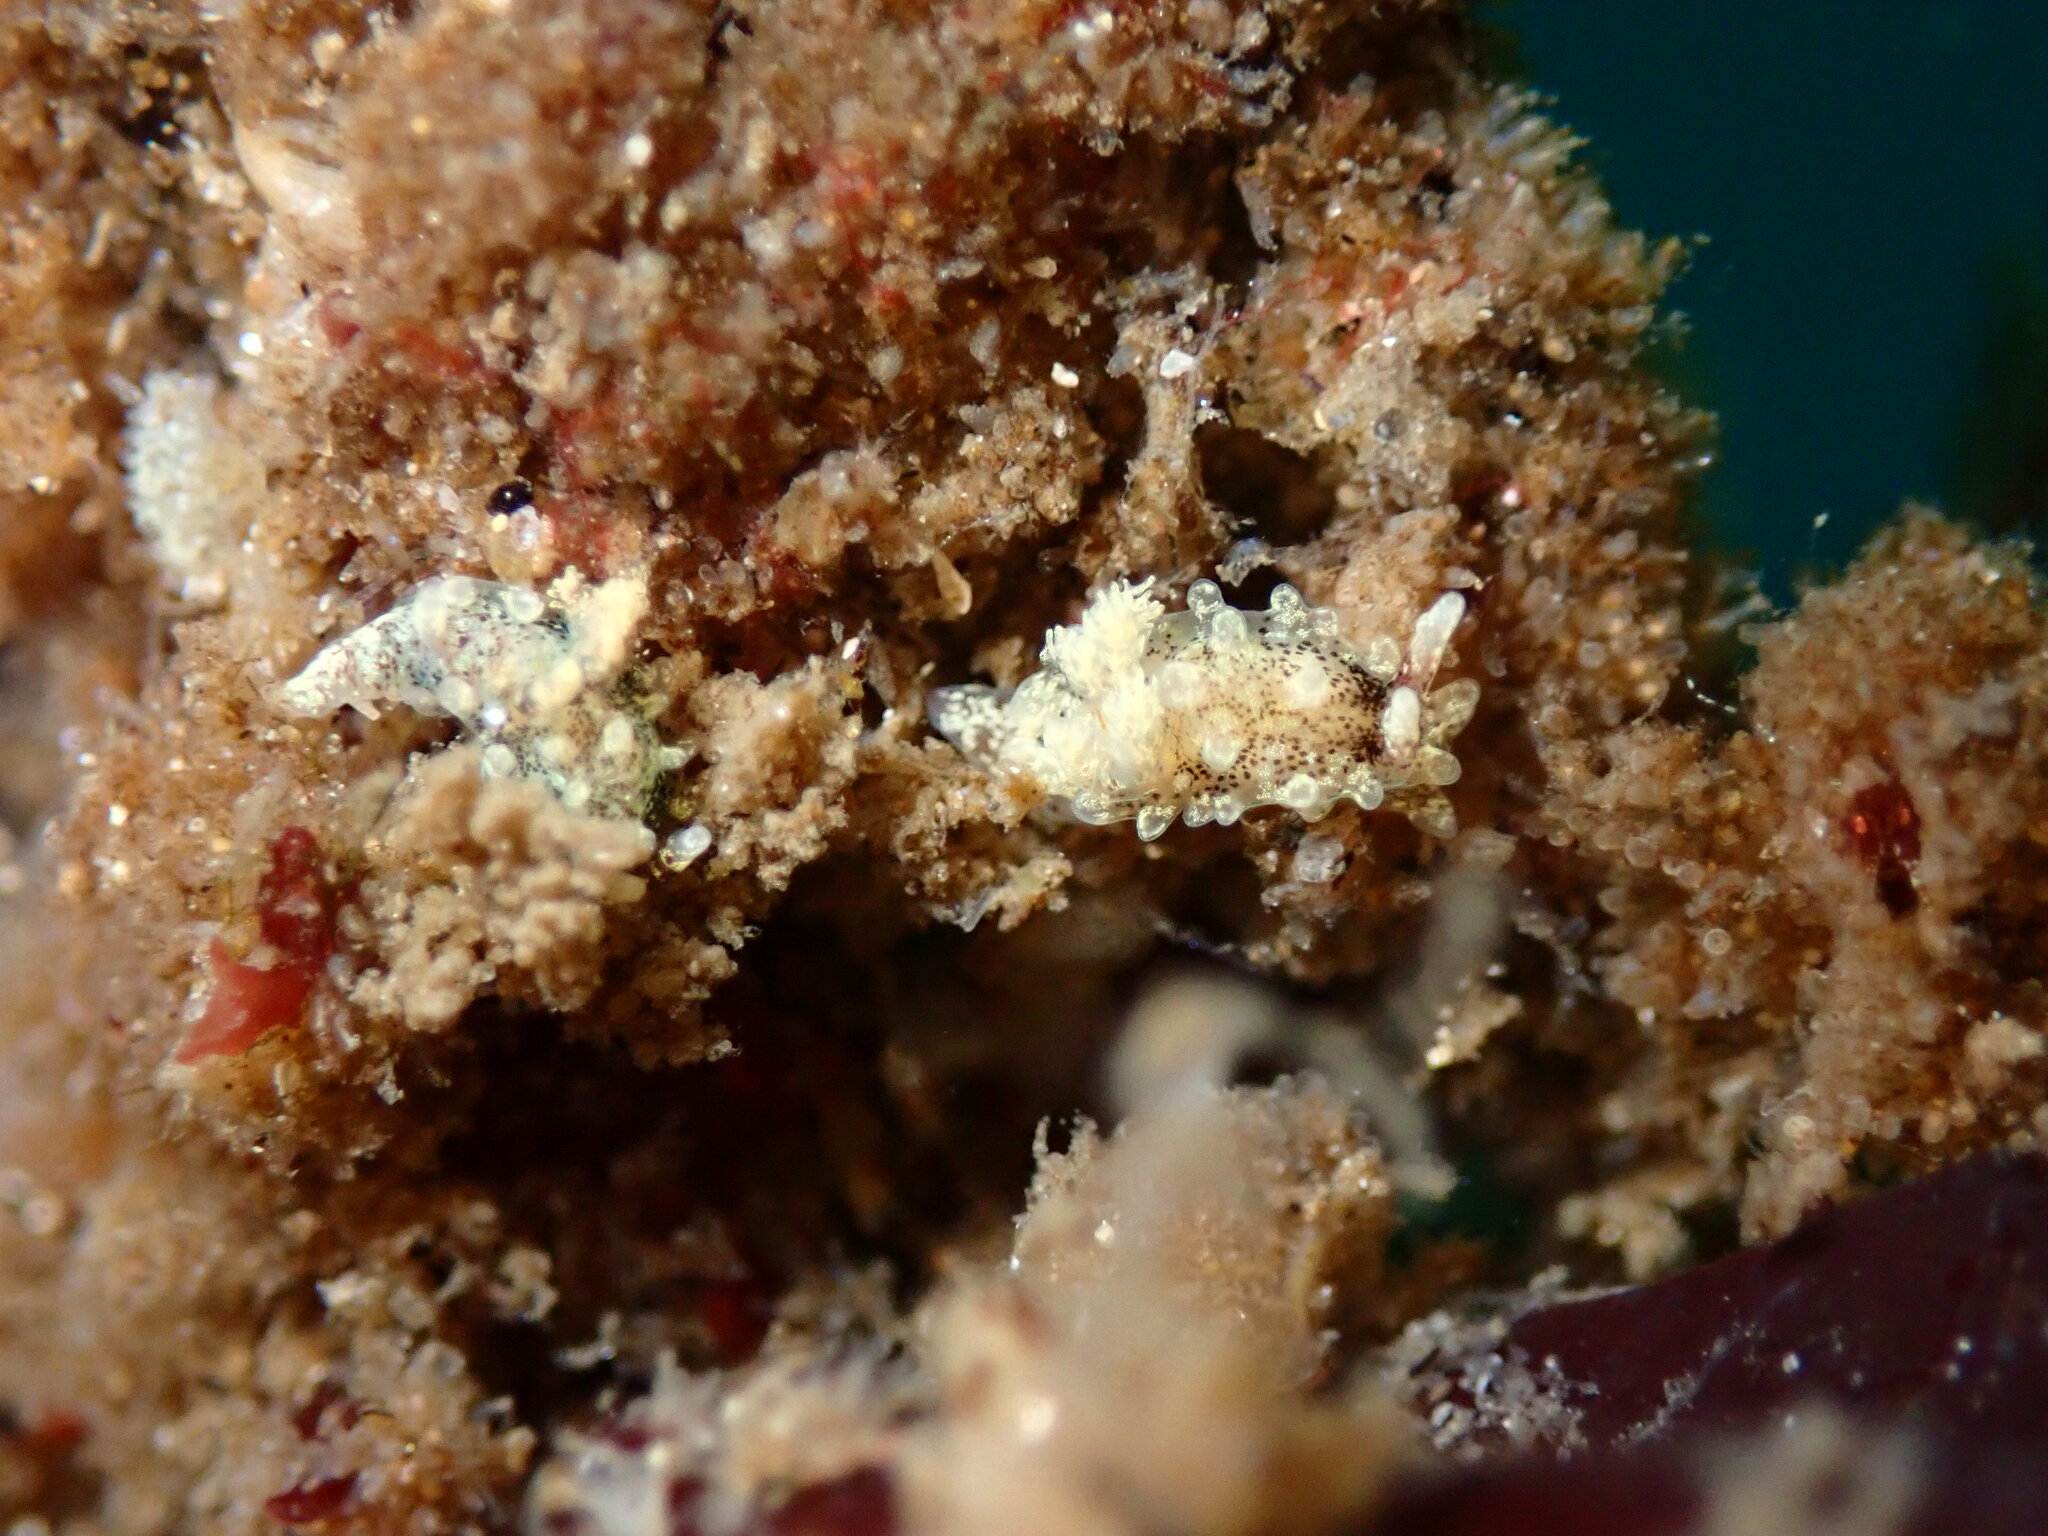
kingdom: Animalia
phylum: Mollusca
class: Gastropoda
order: Nudibranchia
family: Goniodorididae
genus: Okenia
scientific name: Okenia
